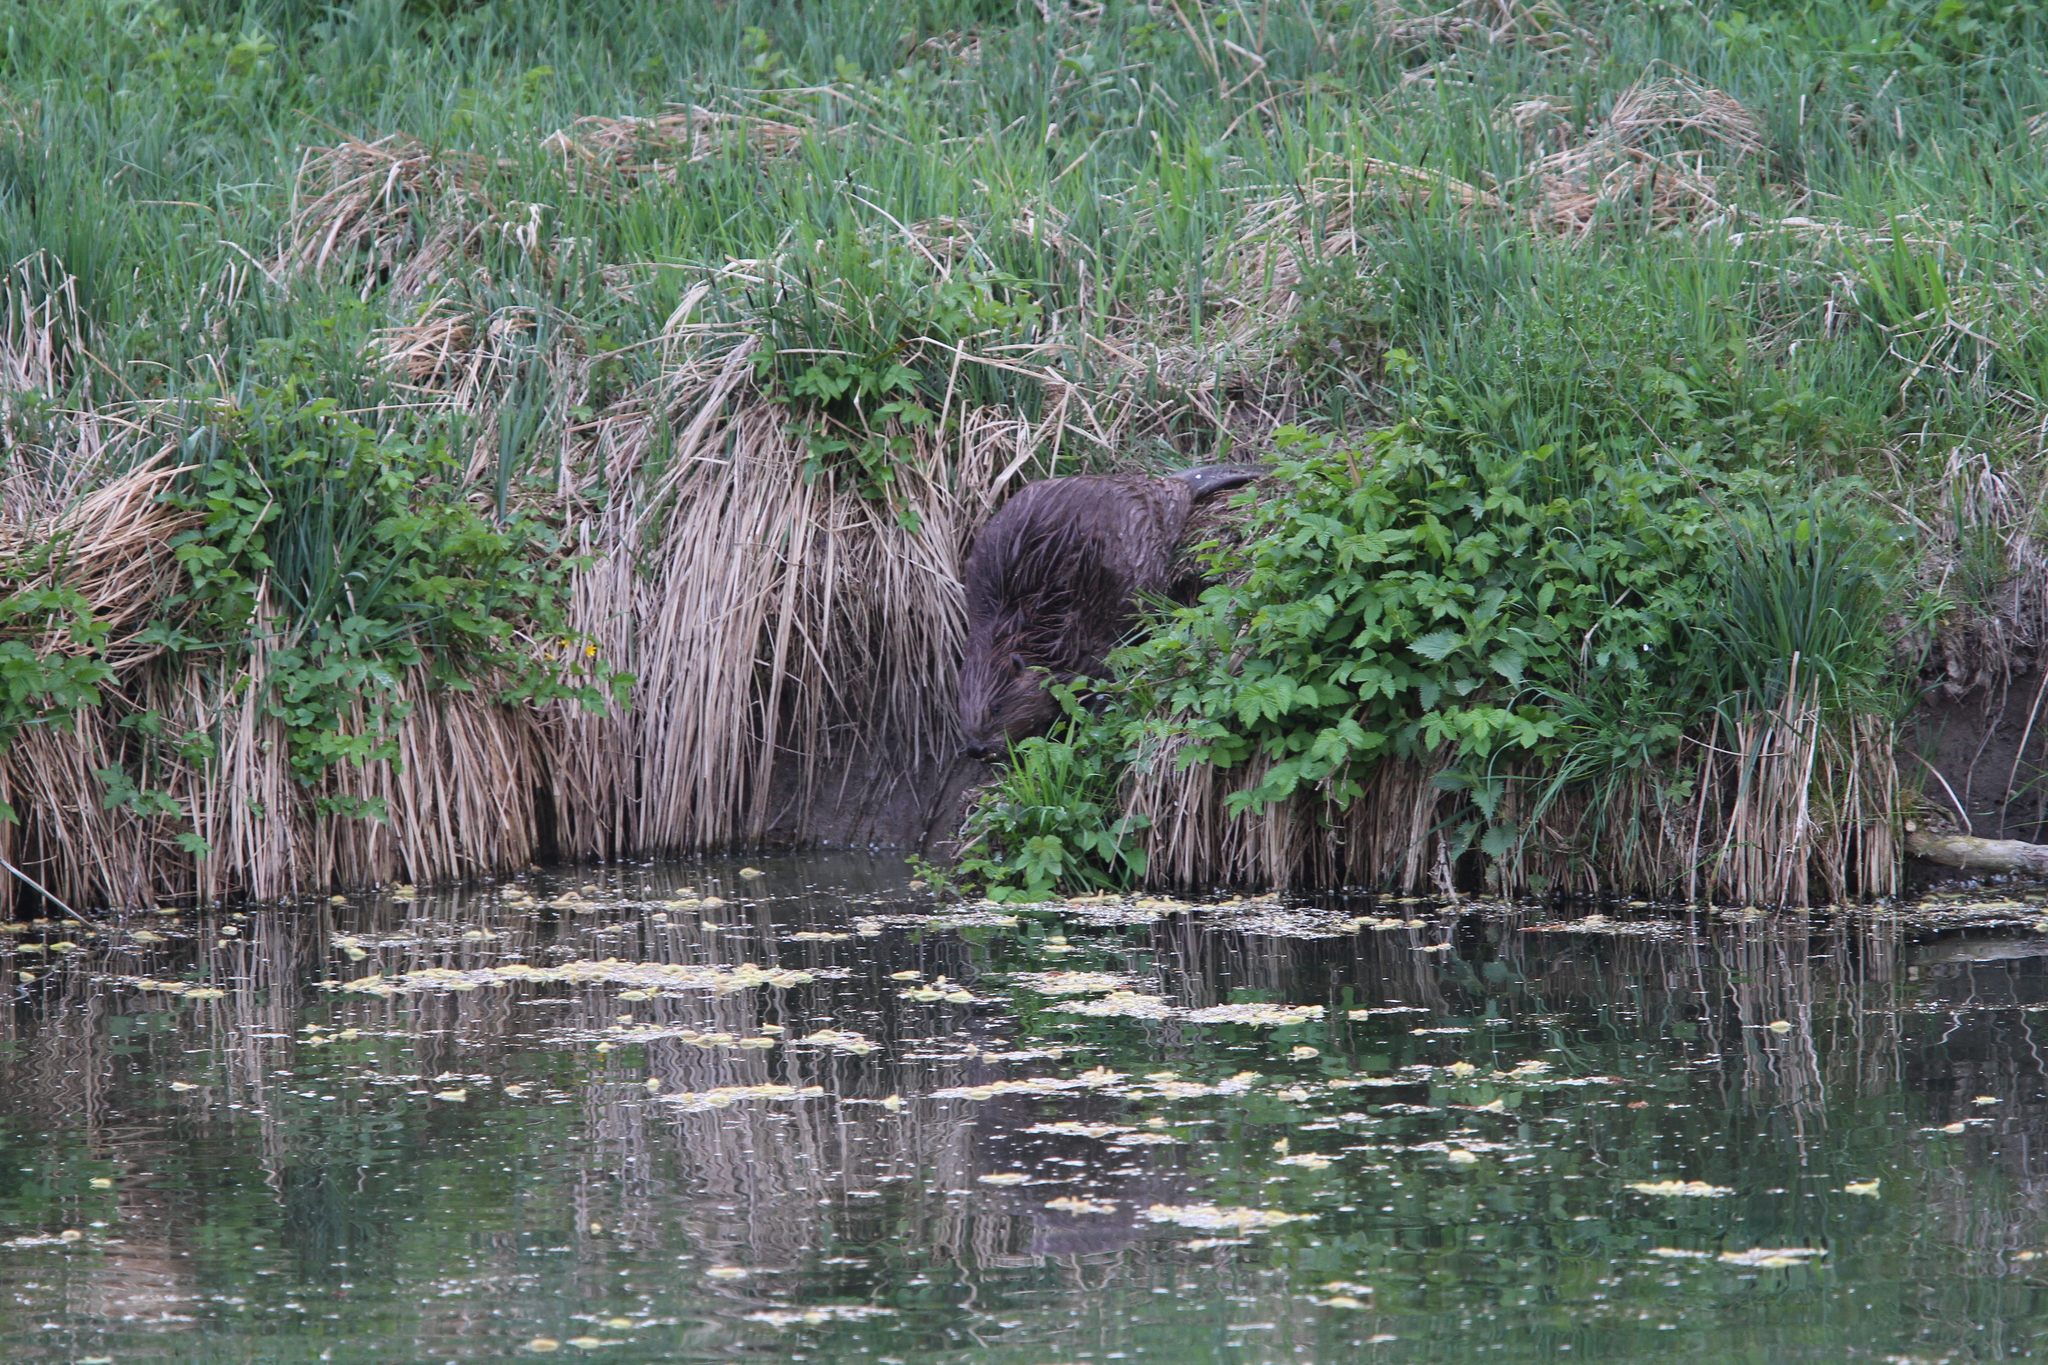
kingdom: Animalia
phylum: Chordata
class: Mammalia
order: Rodentia
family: Castoridae
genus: Castor
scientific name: Castor fiber
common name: Eurasian beaver
